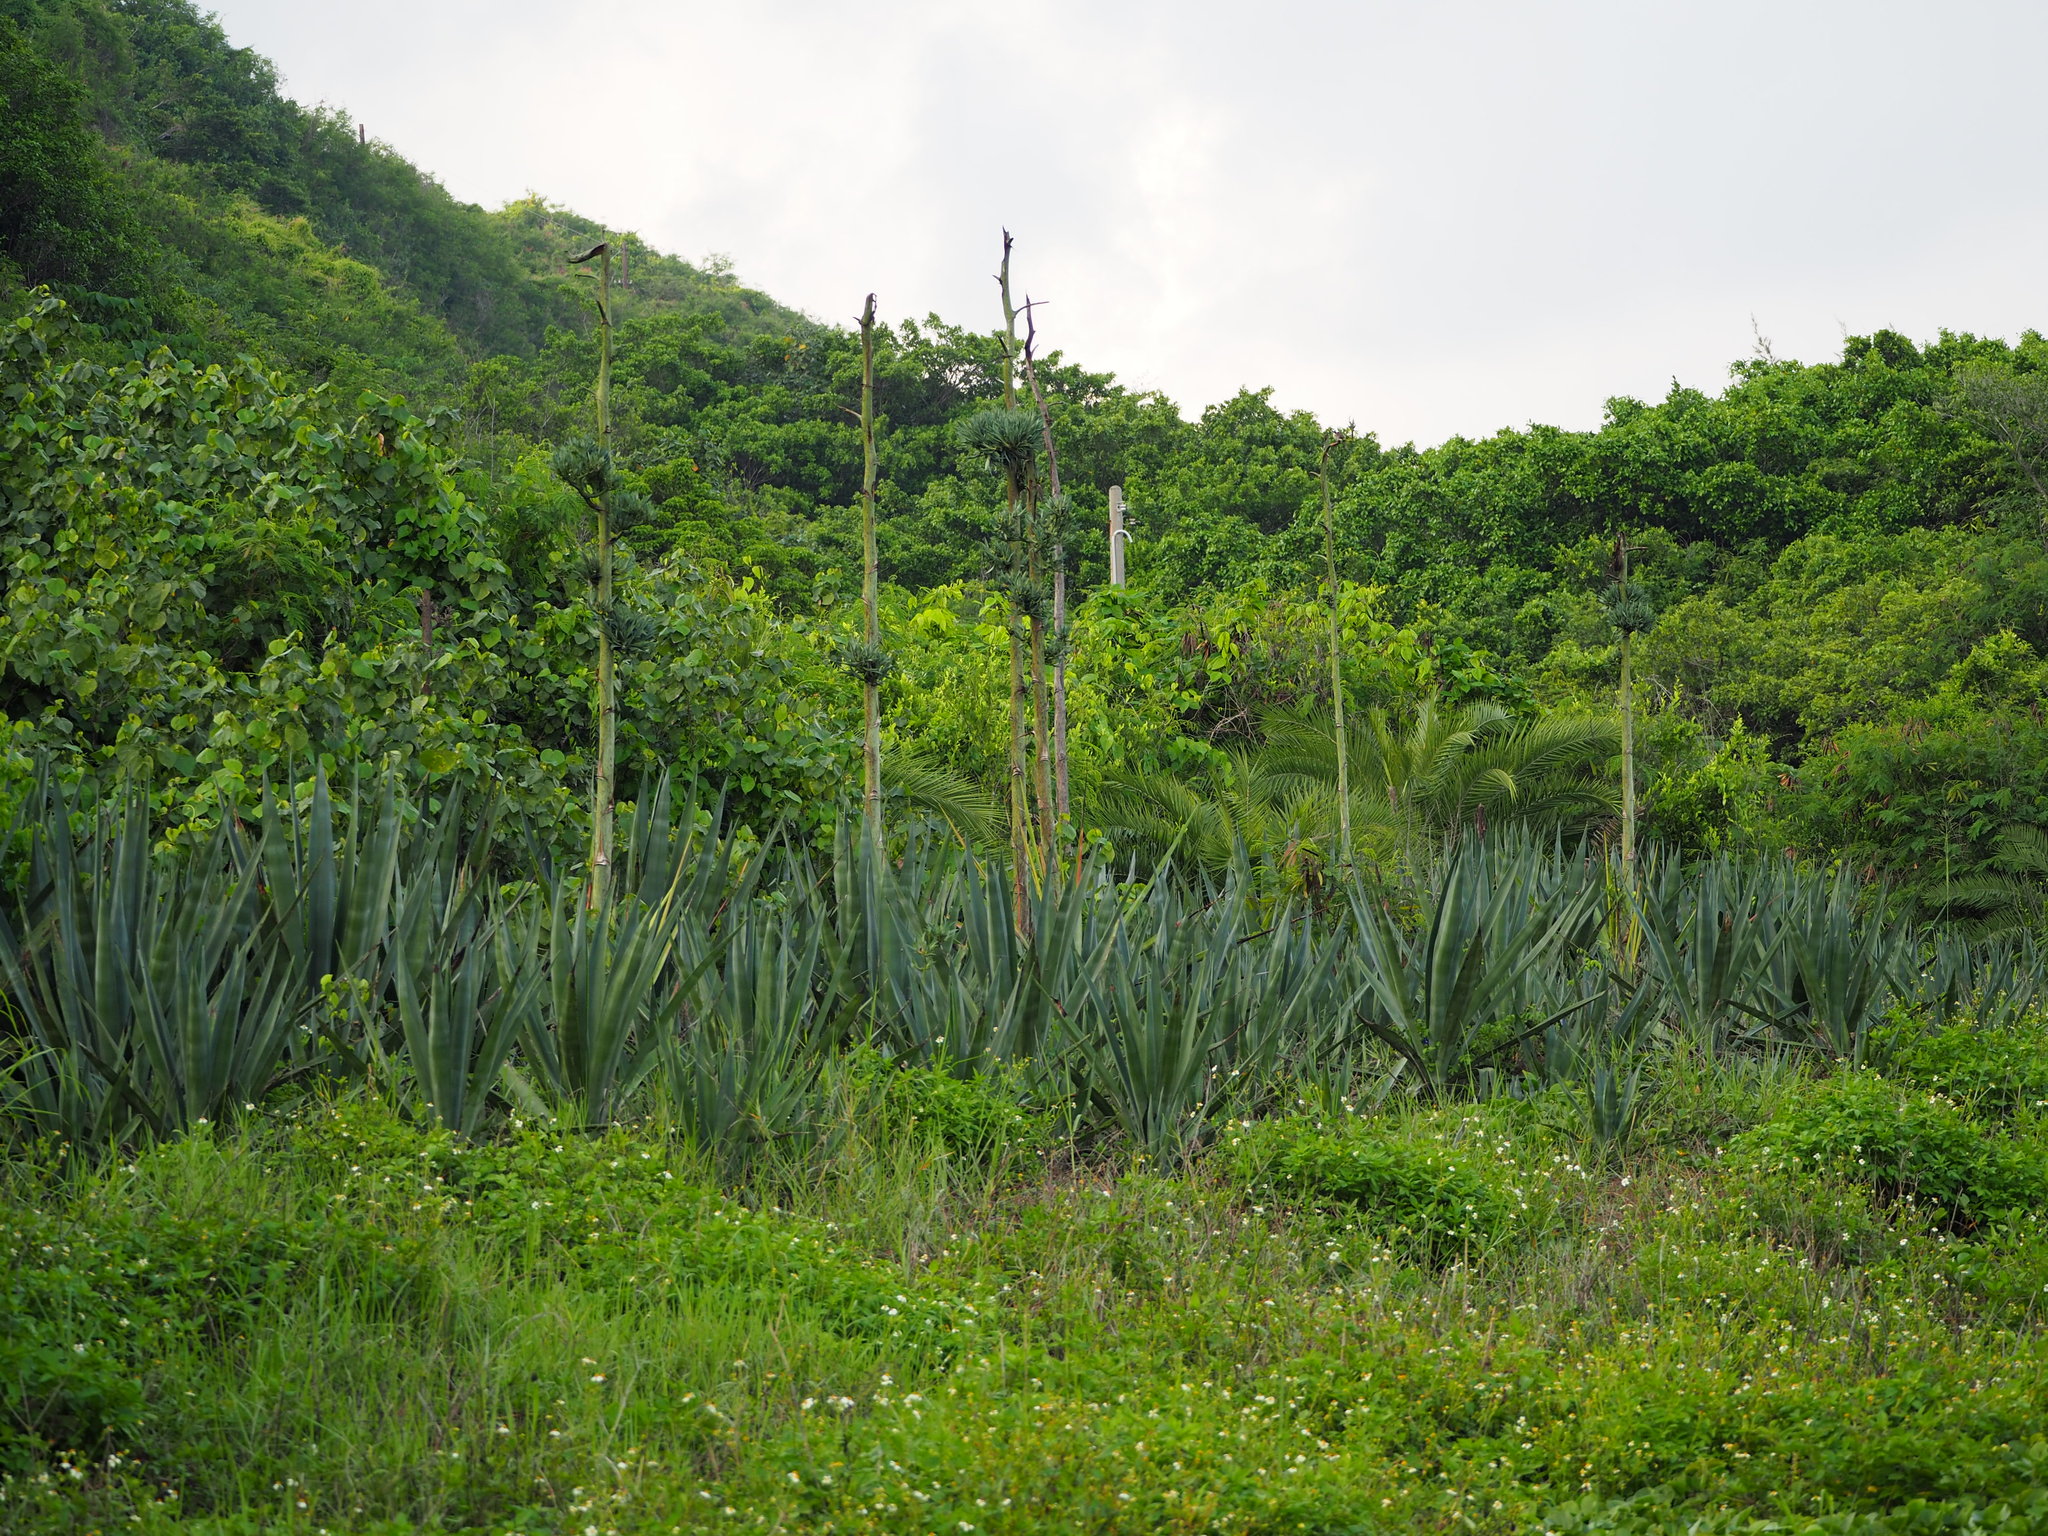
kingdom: Plantae
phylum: Tracheophyta
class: Liliopsida
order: Asparagales
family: Asparagaceae
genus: Agave
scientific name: Agave sisalana
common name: Sisal hemp
